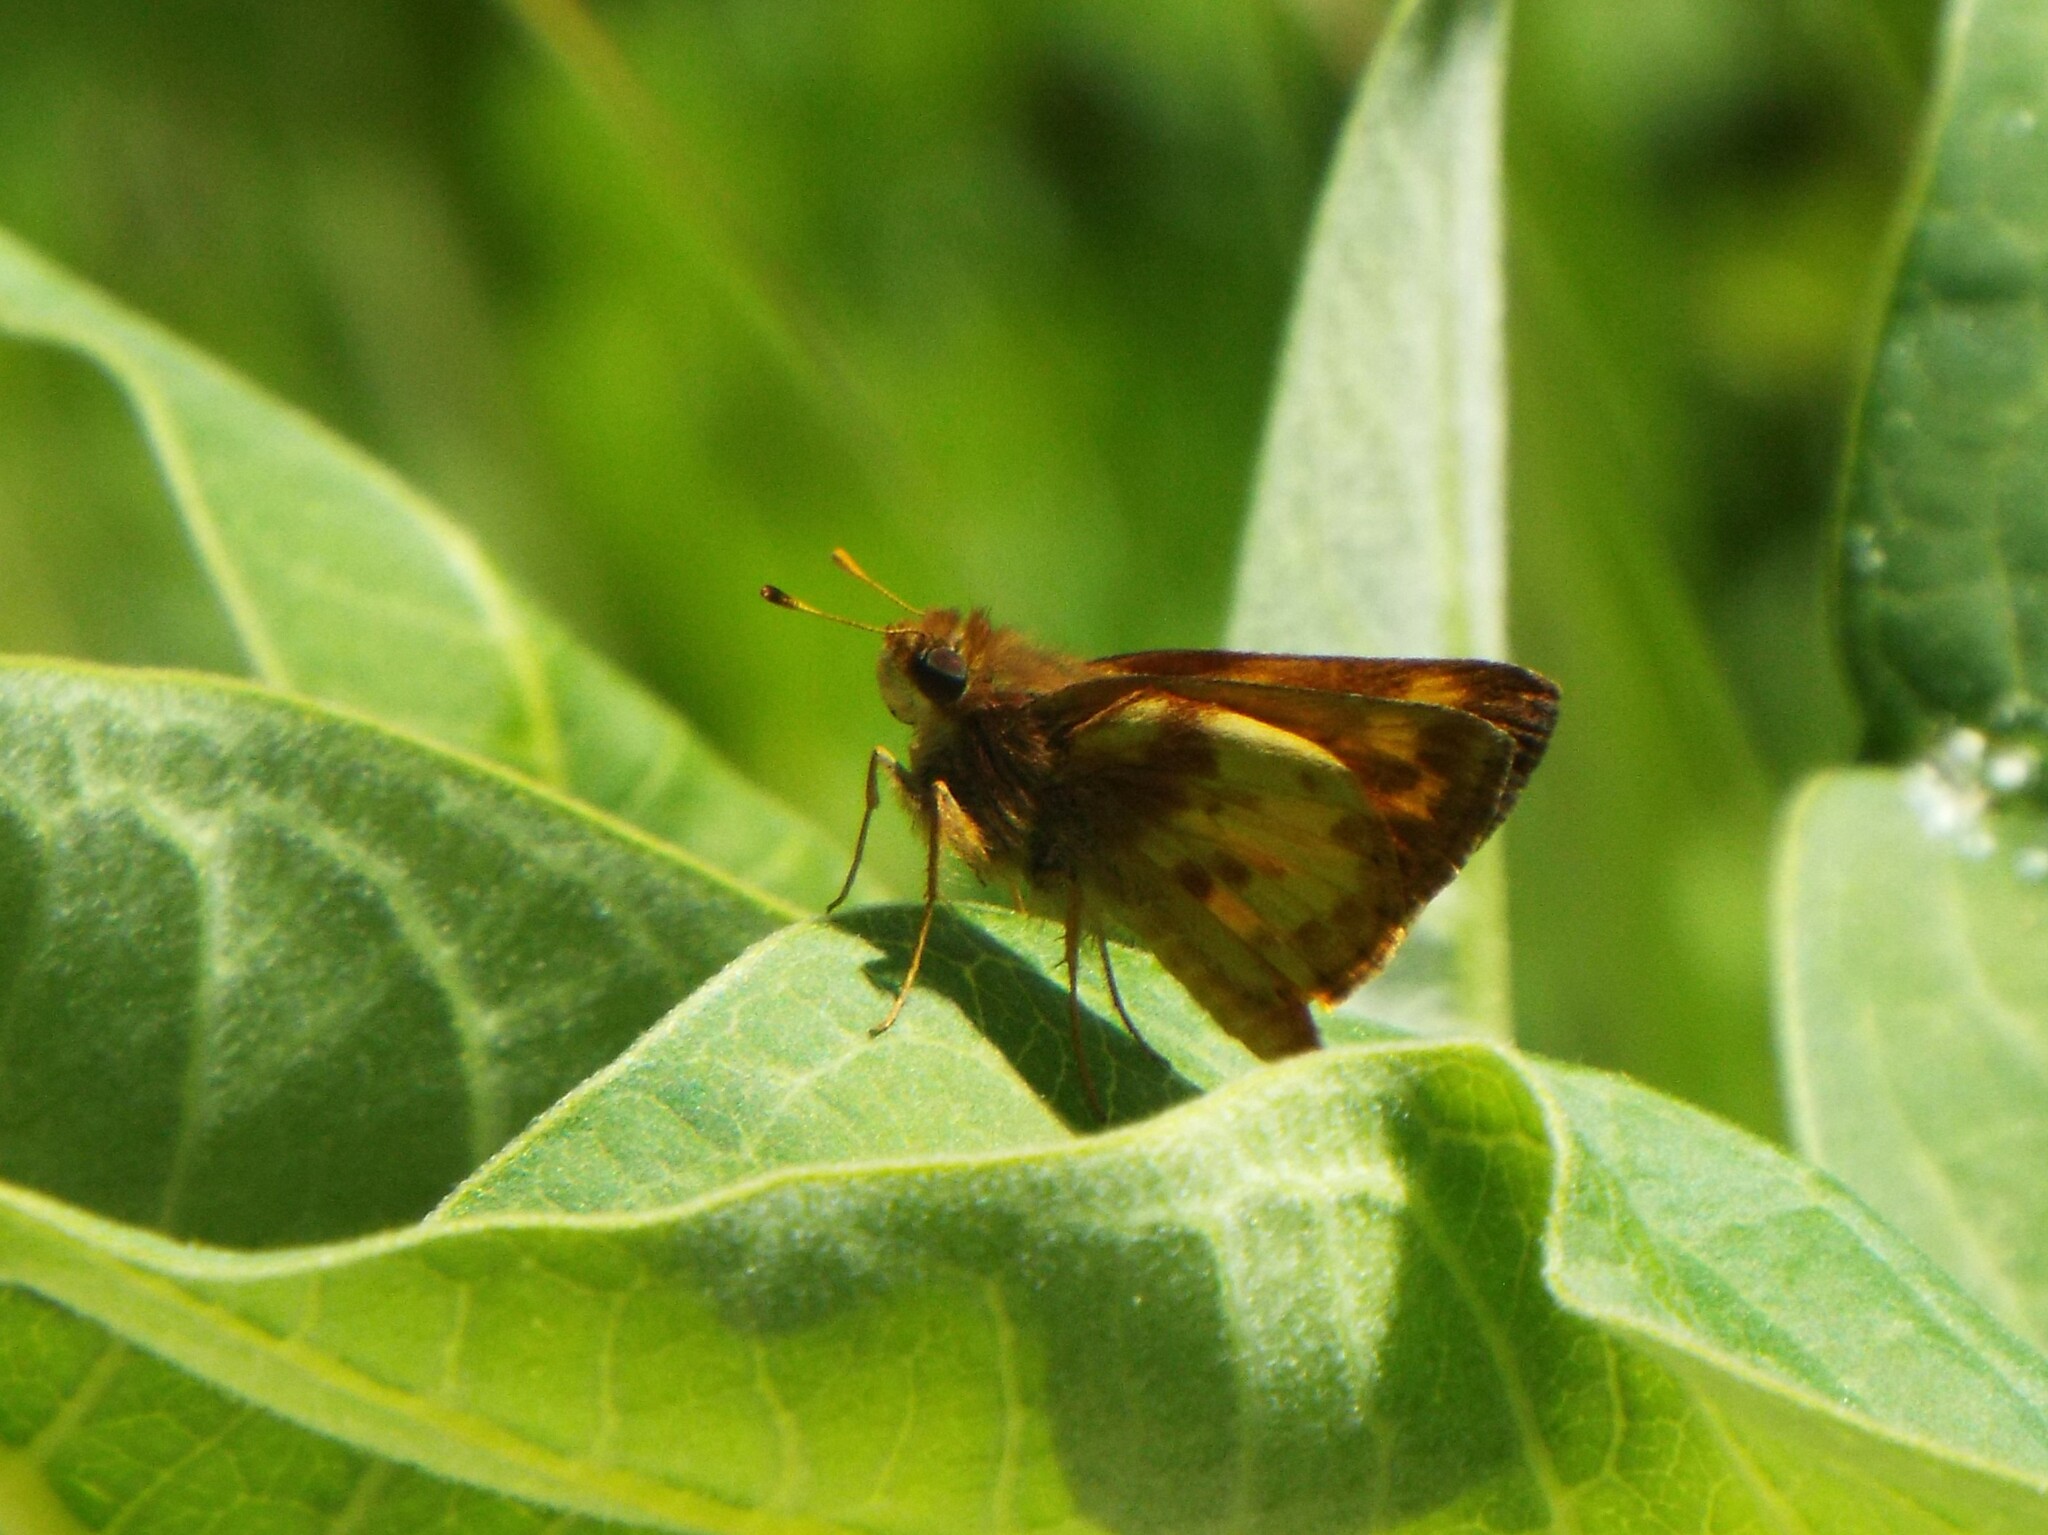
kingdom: Animalia
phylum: Arthropoda
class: Insecta
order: Lepidoptera
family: Hesperiidae
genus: Lon
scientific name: Lon zabulon
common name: Zabulon skipper
